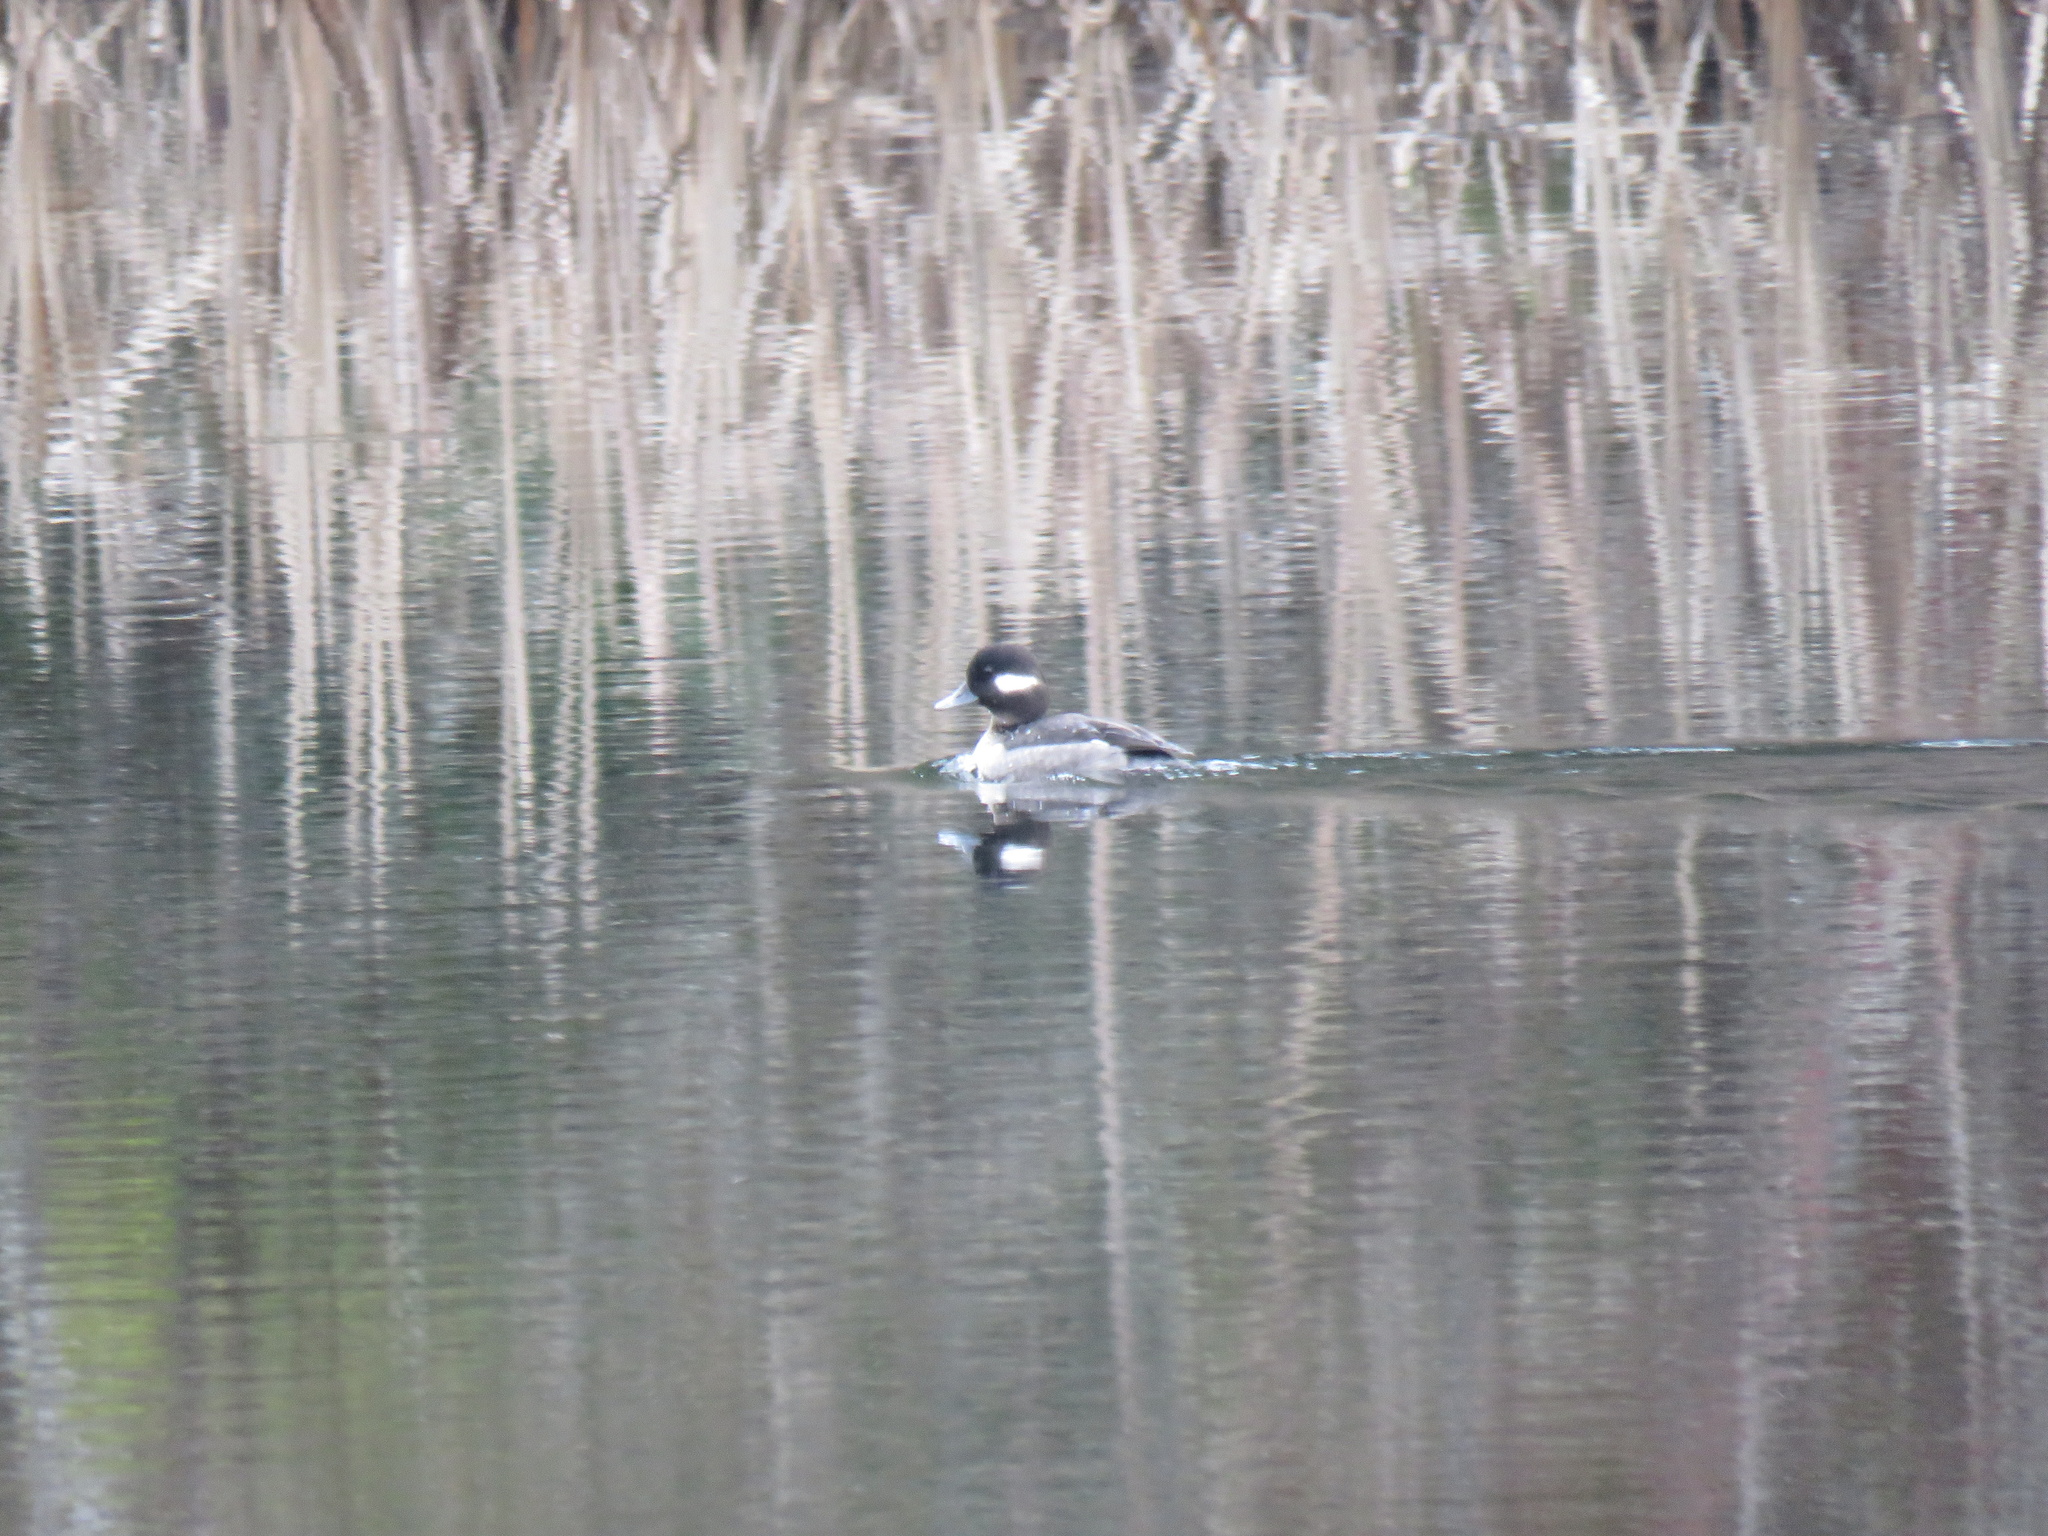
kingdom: Animalia
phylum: Chordata
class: Aves
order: Anseriformes
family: Anatidae
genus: Bucephala
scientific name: Bucephala albeola
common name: Bufflehead
